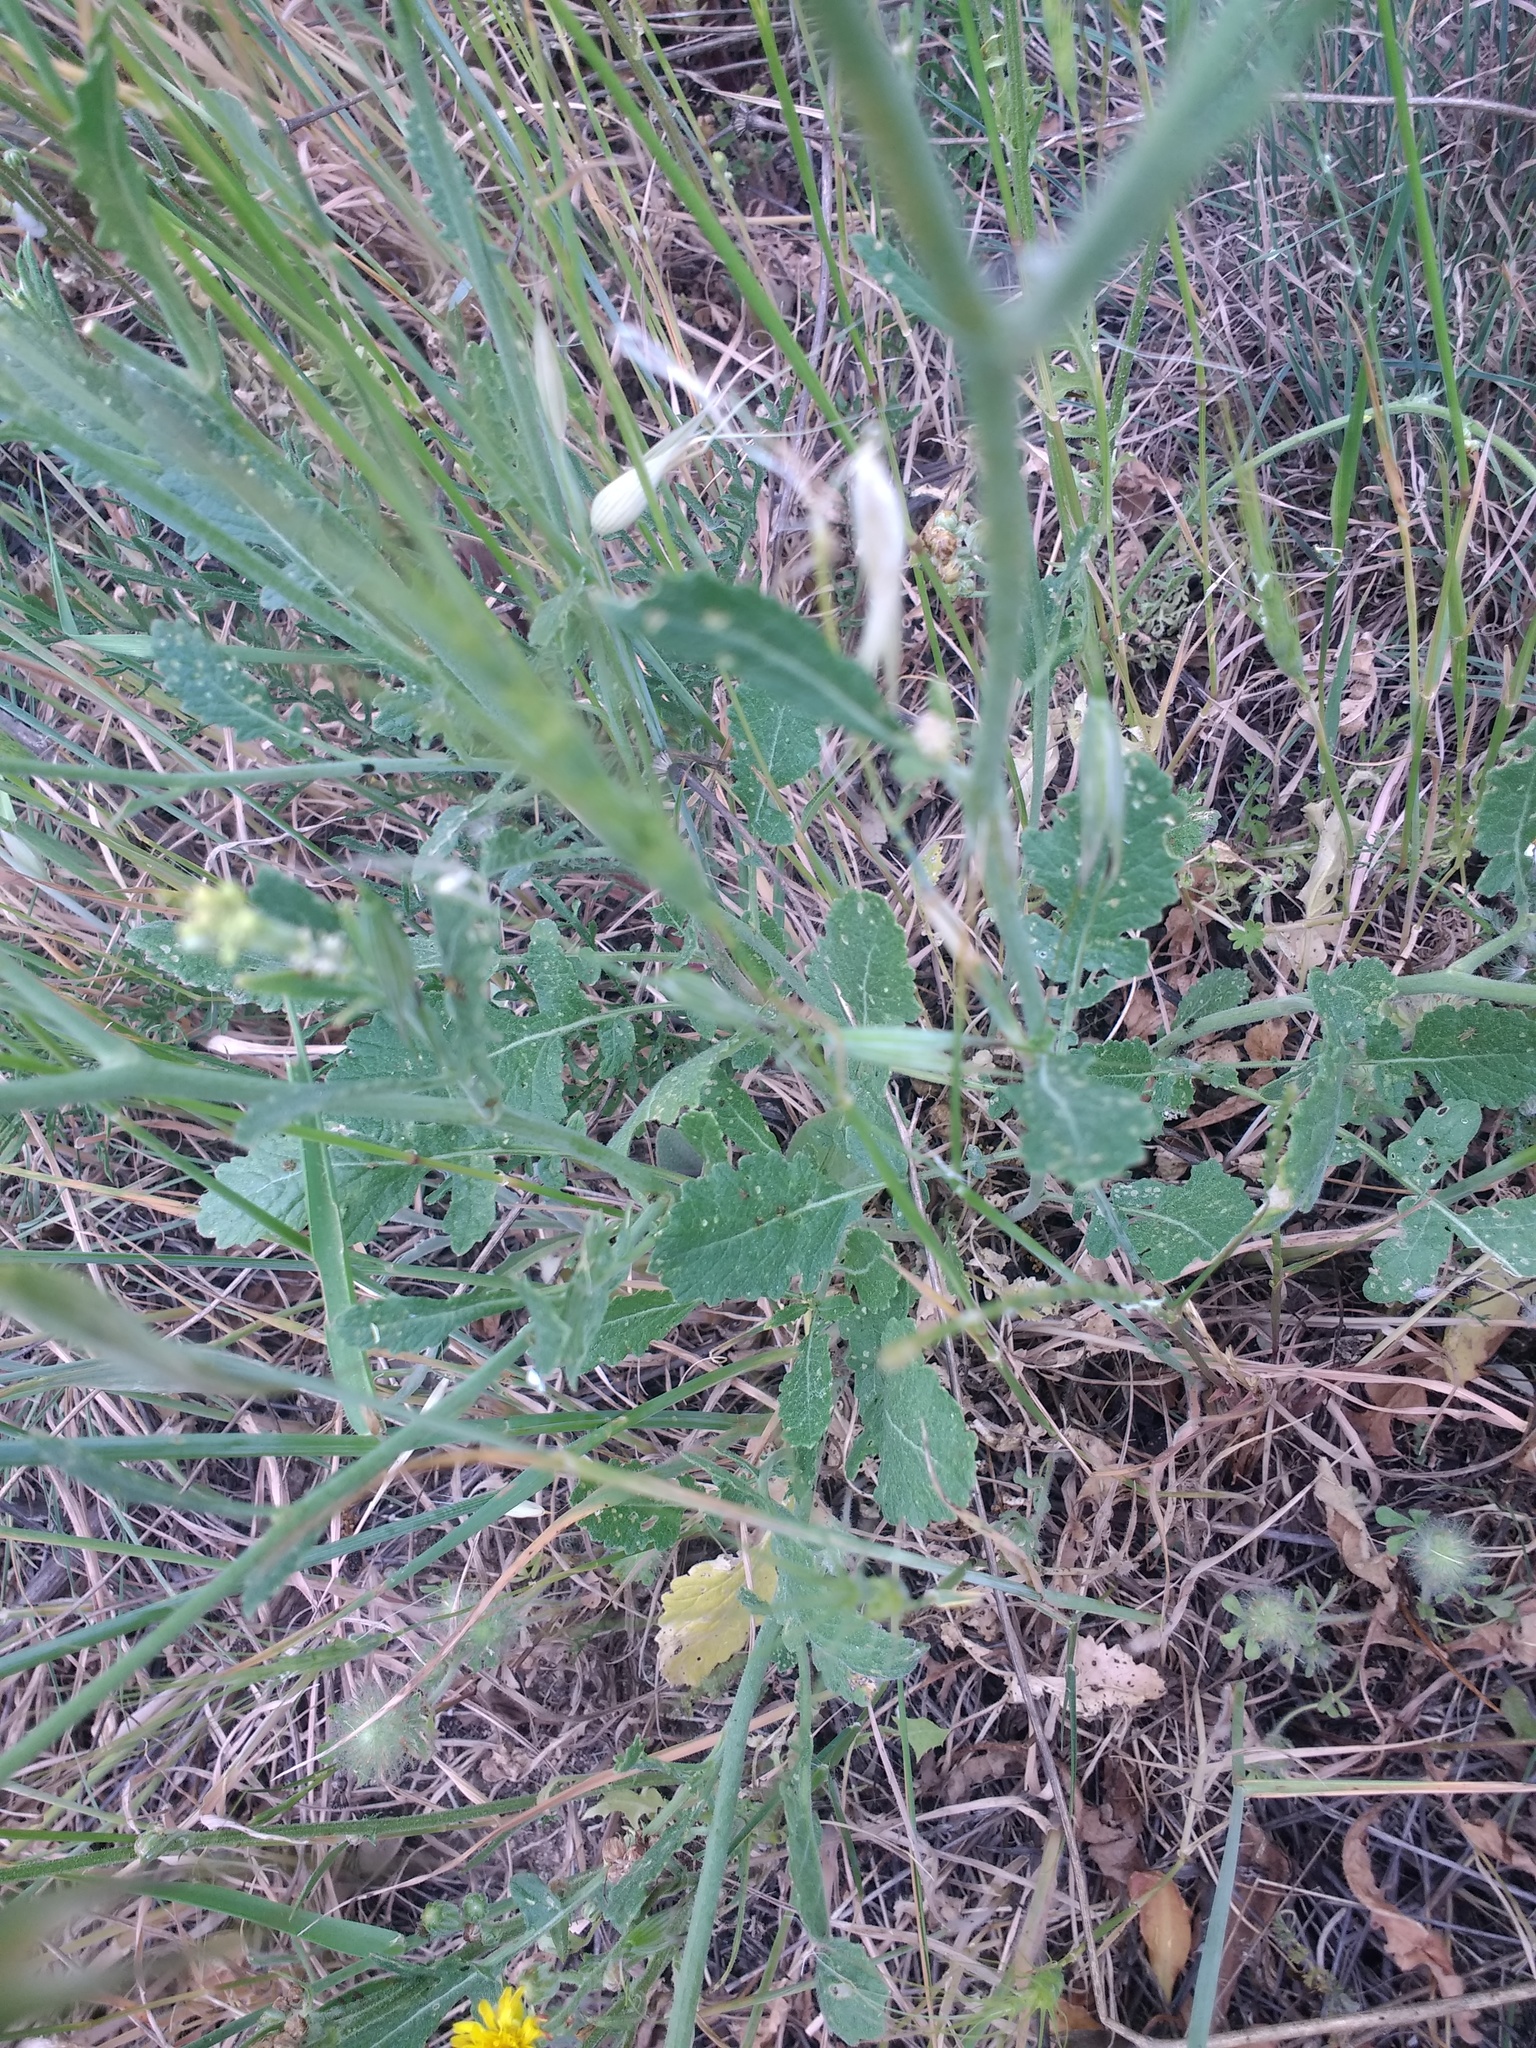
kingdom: Plantae
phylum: Tracheophyta
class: Magnoliopsida
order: Brassicales
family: Brassicaceae
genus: Hirschfeldia
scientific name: Hirschfeldia incana
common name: Hoary mustard
